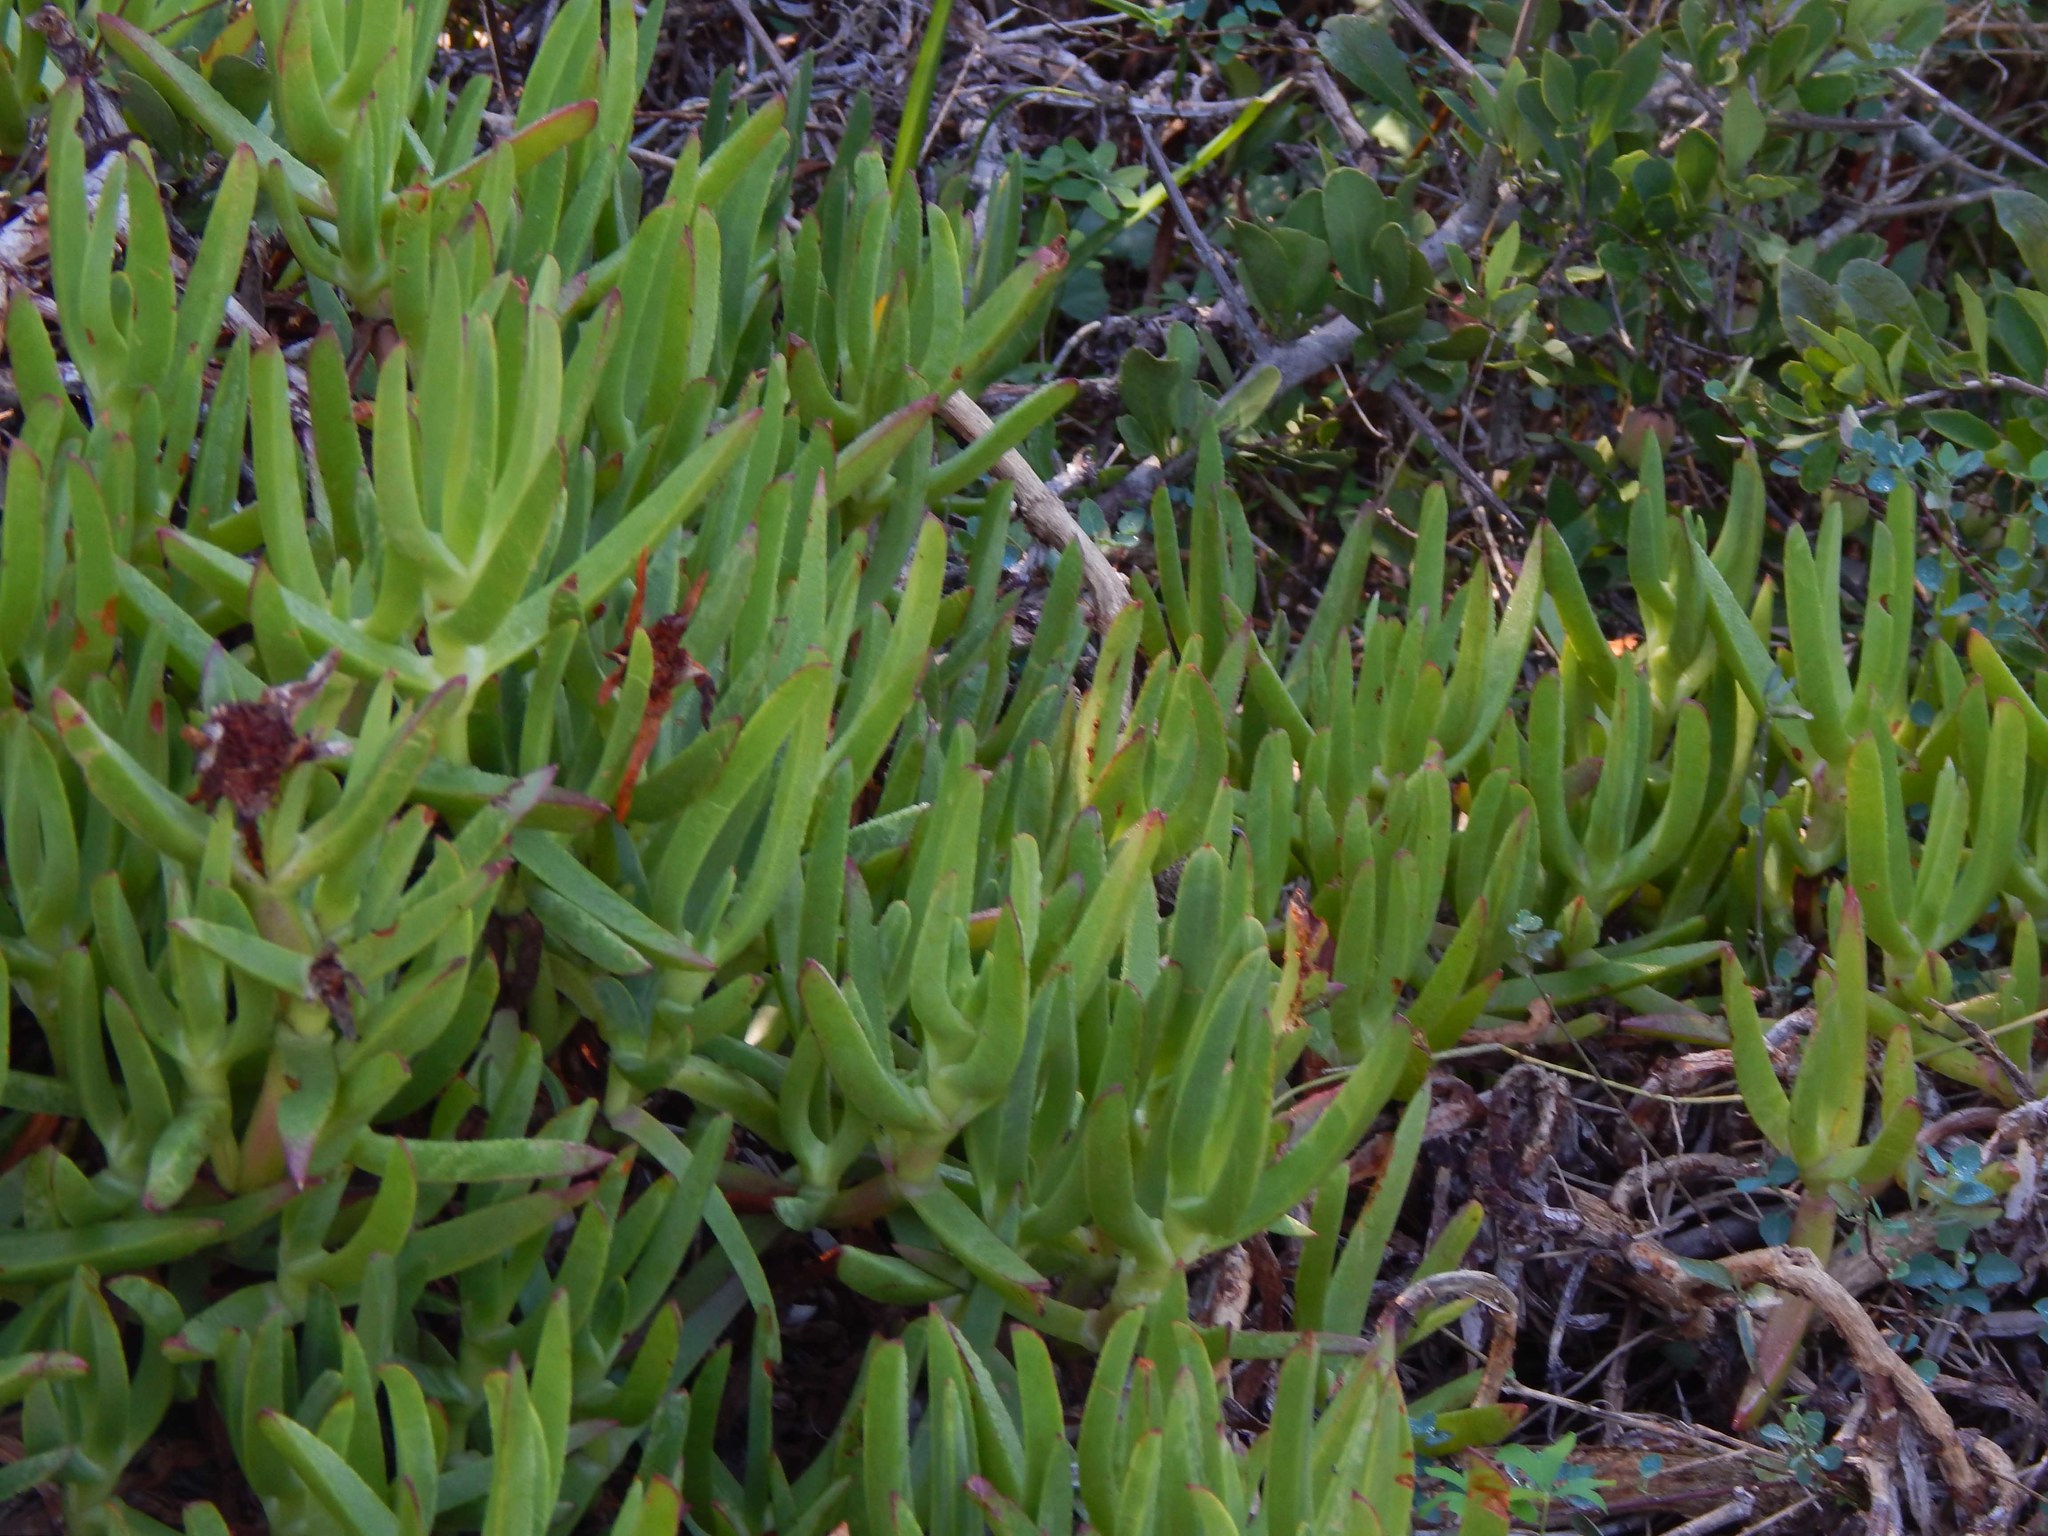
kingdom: Plantae
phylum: Tracheophyta
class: Magnoliopsida
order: Caryophyllales
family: Aizoaceae
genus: Carpobrotus
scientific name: Carpobrotus edulis
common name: Hottentot-fig
